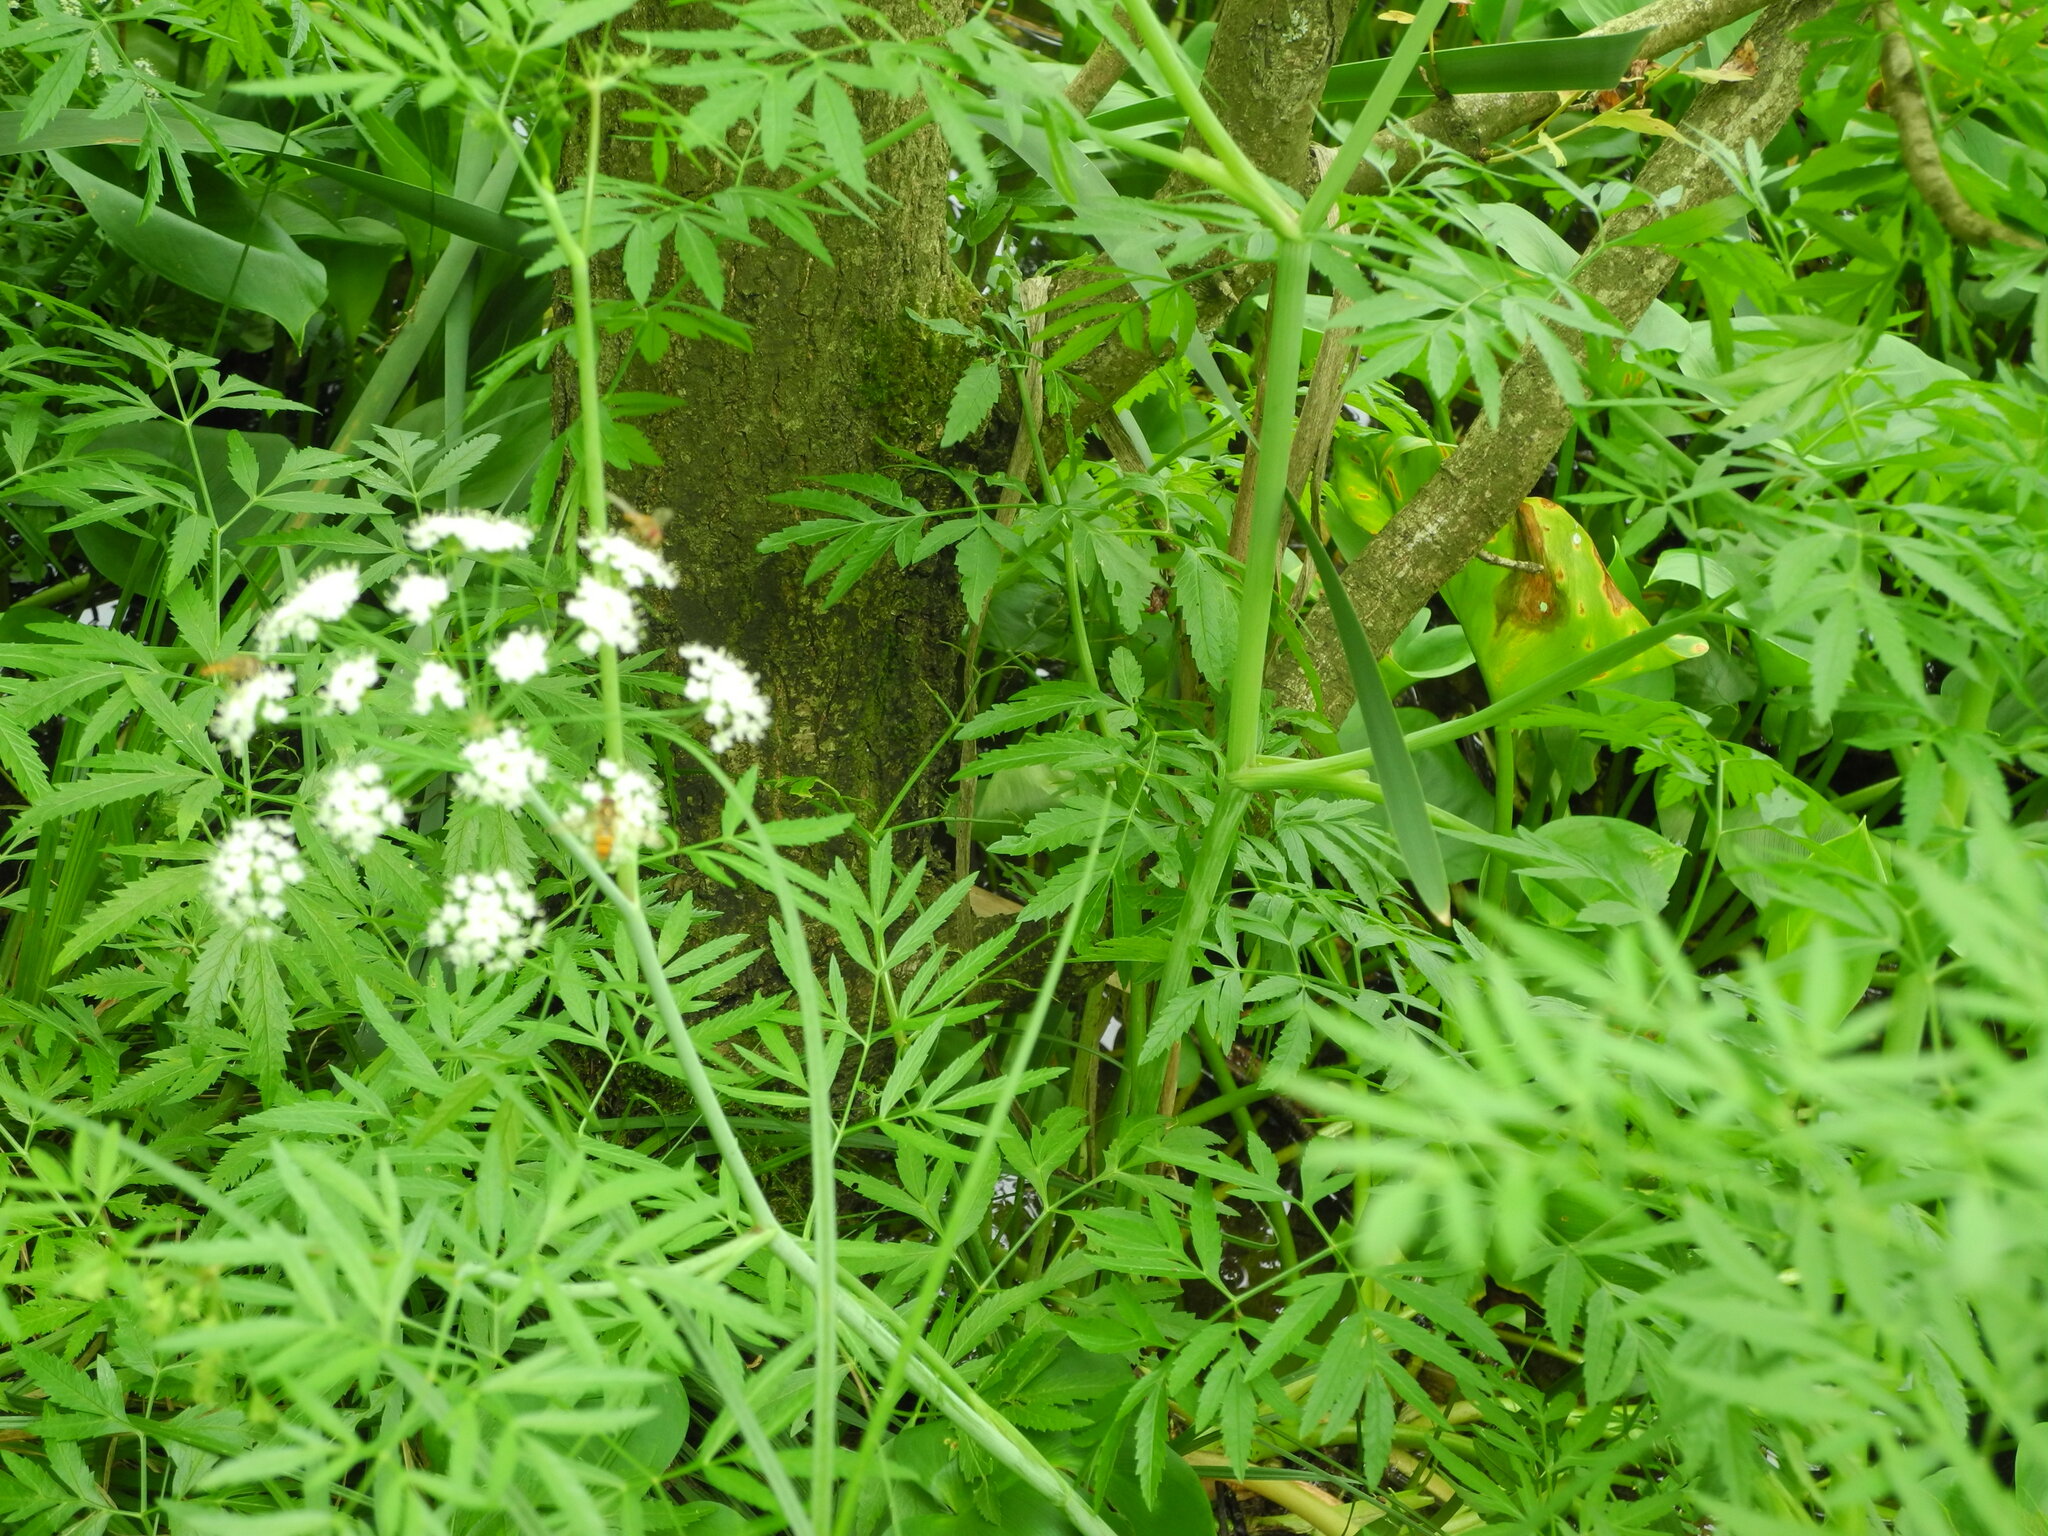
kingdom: Plantae
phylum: Tracheophyta
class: Magnoliopsida
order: Apiales
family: Apiaceae
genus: Cicuta
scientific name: Cicuta virosa
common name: Cowbane
